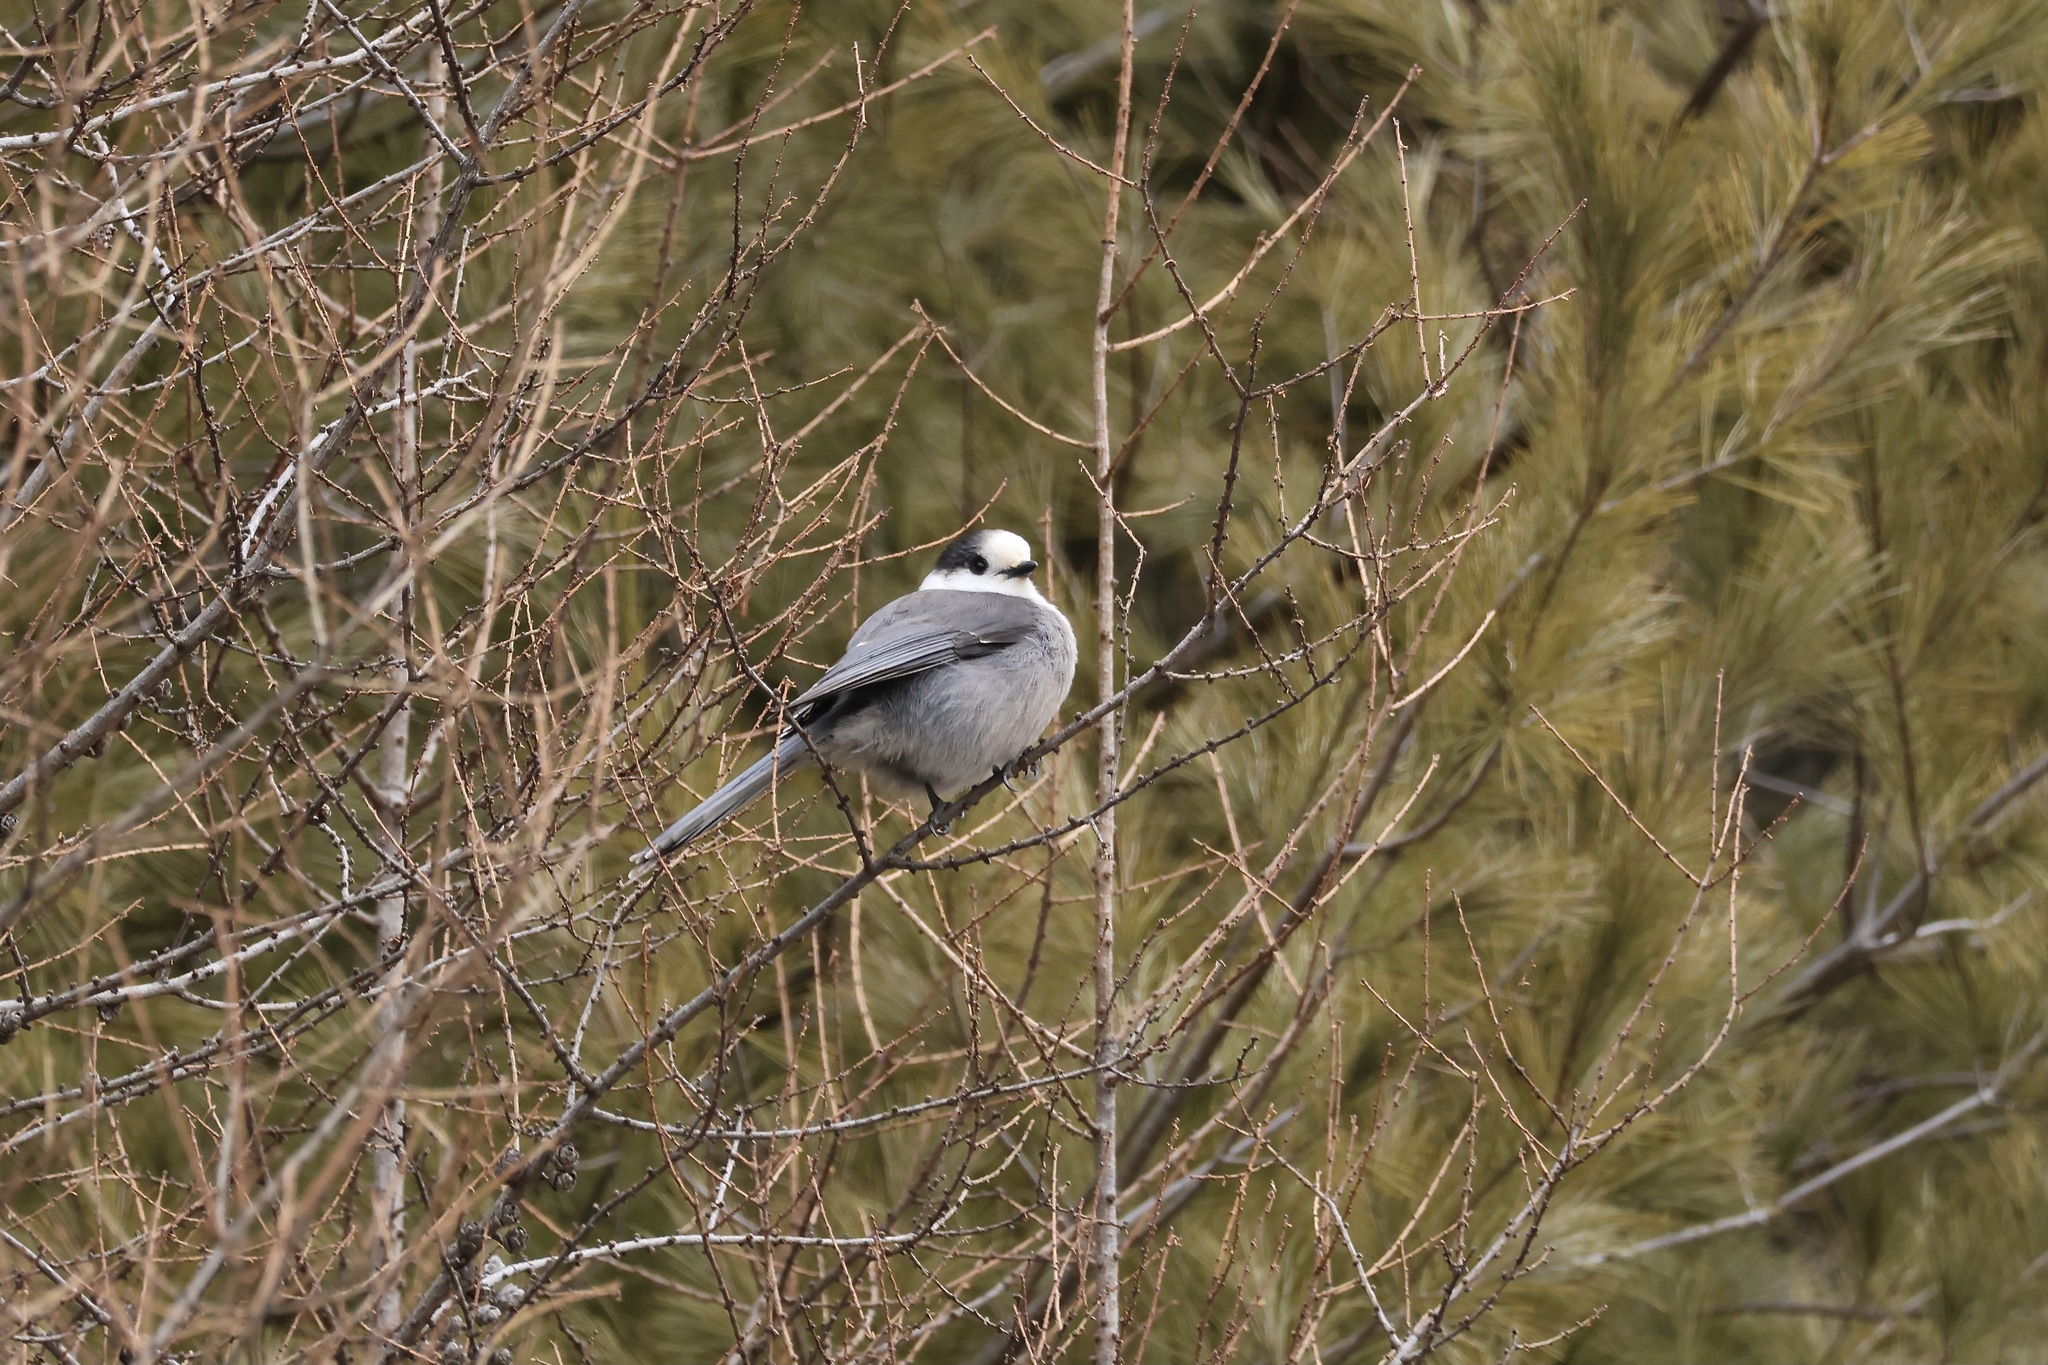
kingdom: Animalia
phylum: Chordata
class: Aves
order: Passeriformes
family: Corvidae
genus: Perisoreus
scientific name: Perisoreus canadensis
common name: Gray jay
